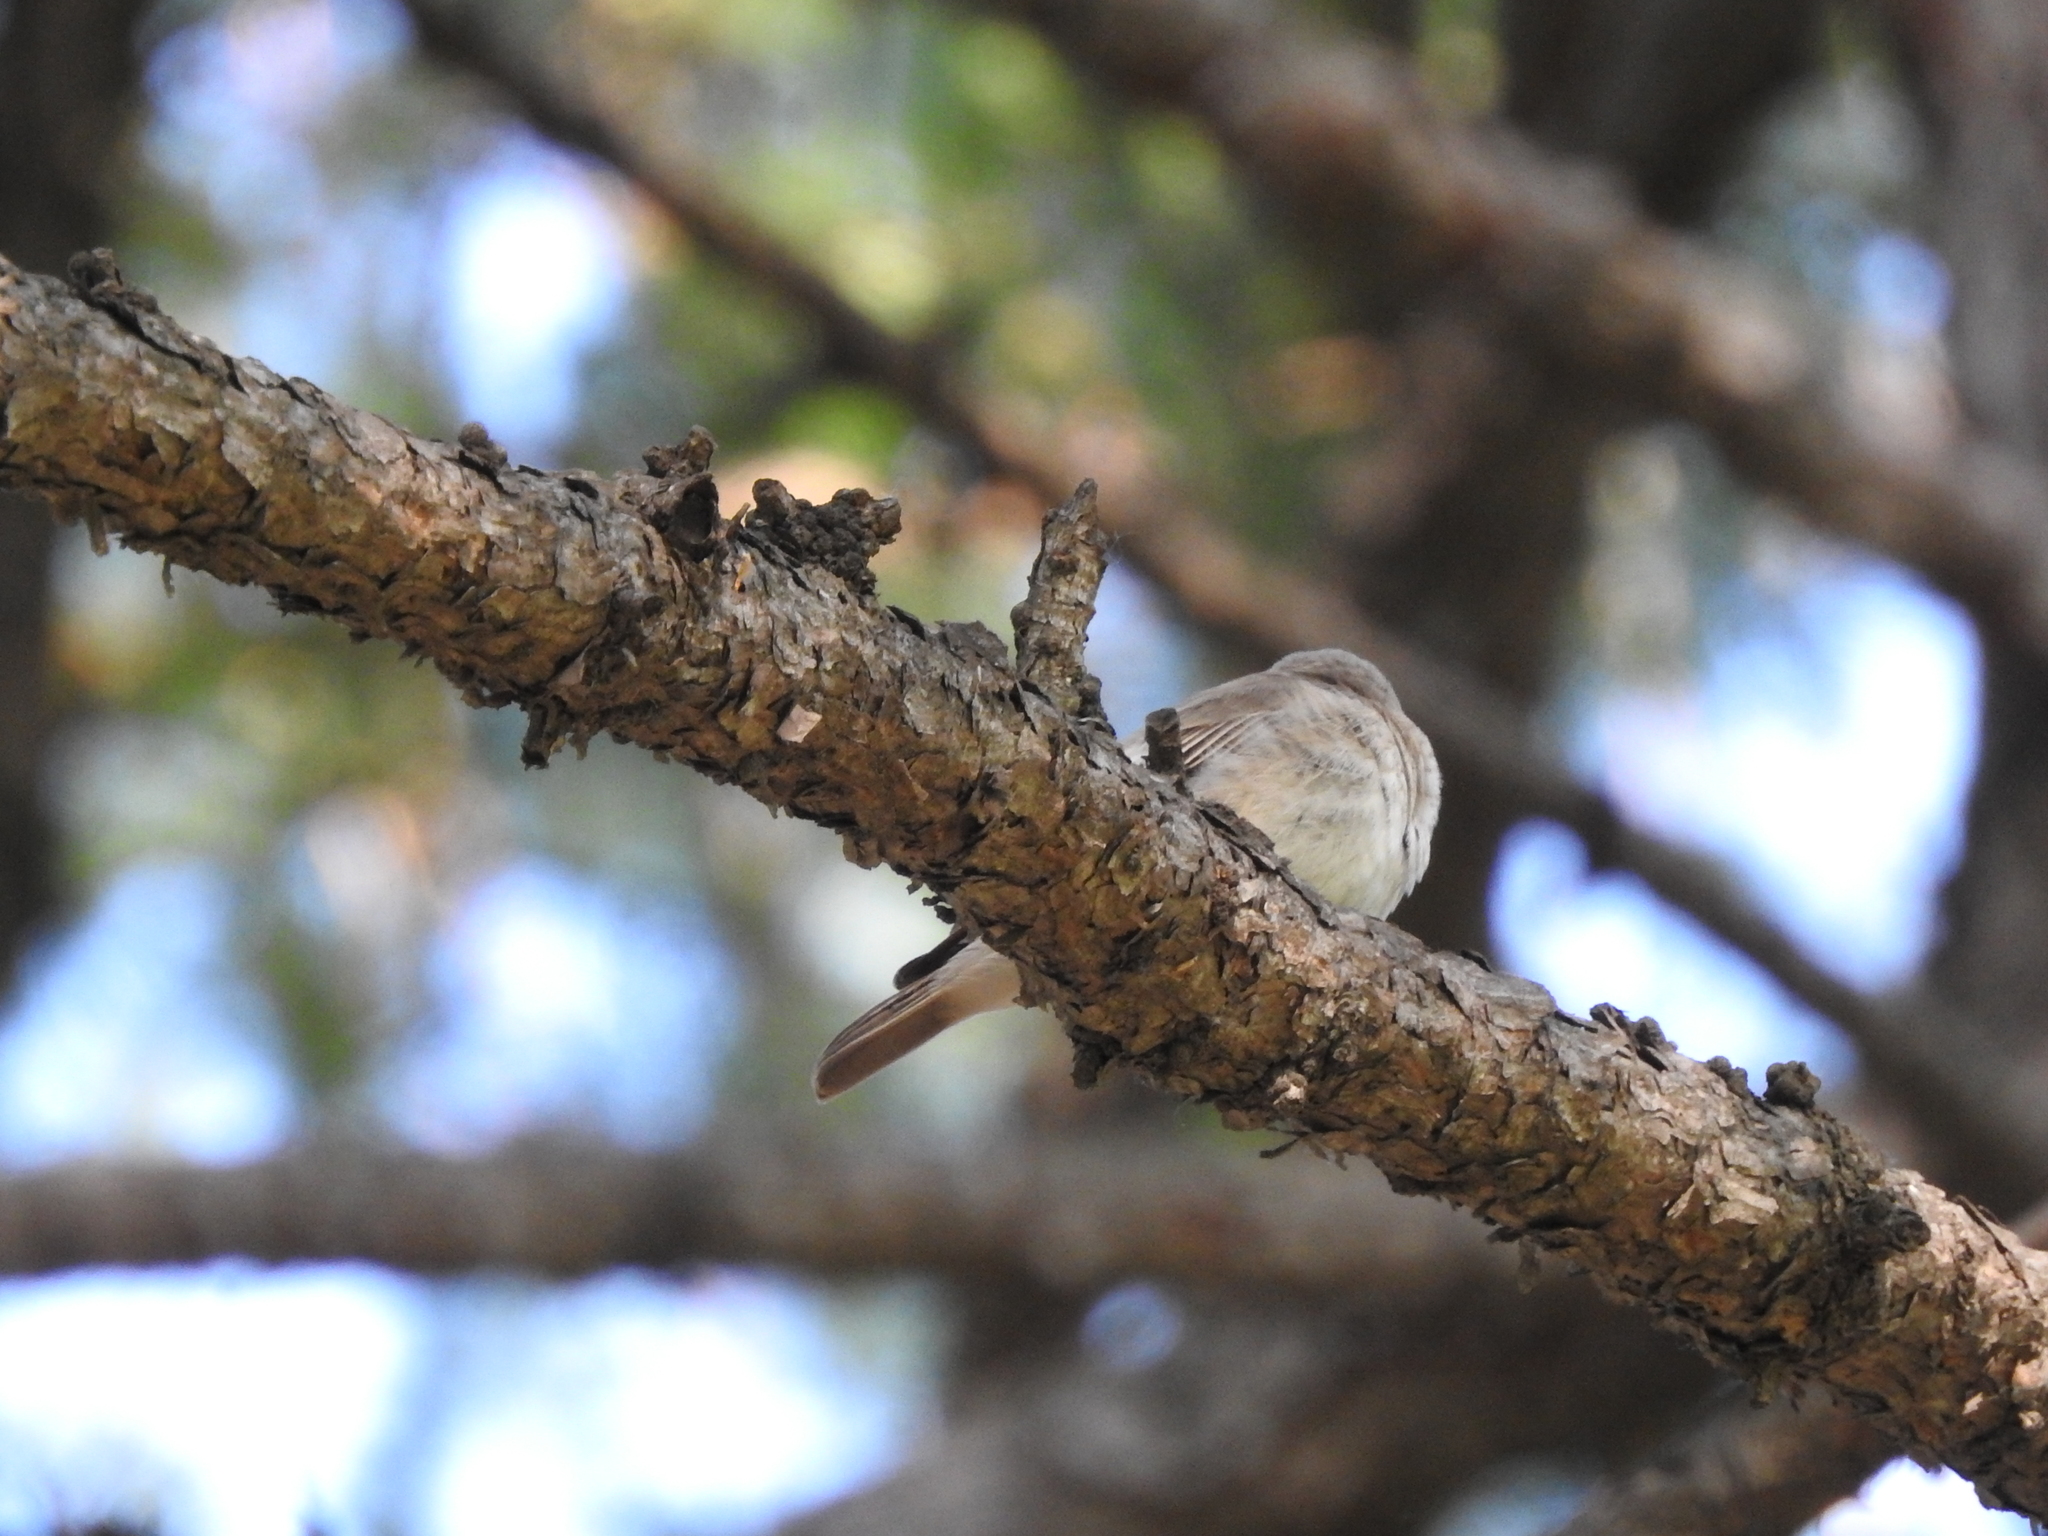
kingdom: Animalia
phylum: Chordata
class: Aves
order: Passeriformes
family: Muscicapidae
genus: Muscicapa
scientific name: Muscicapa striata
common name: Spotted flycatcher
